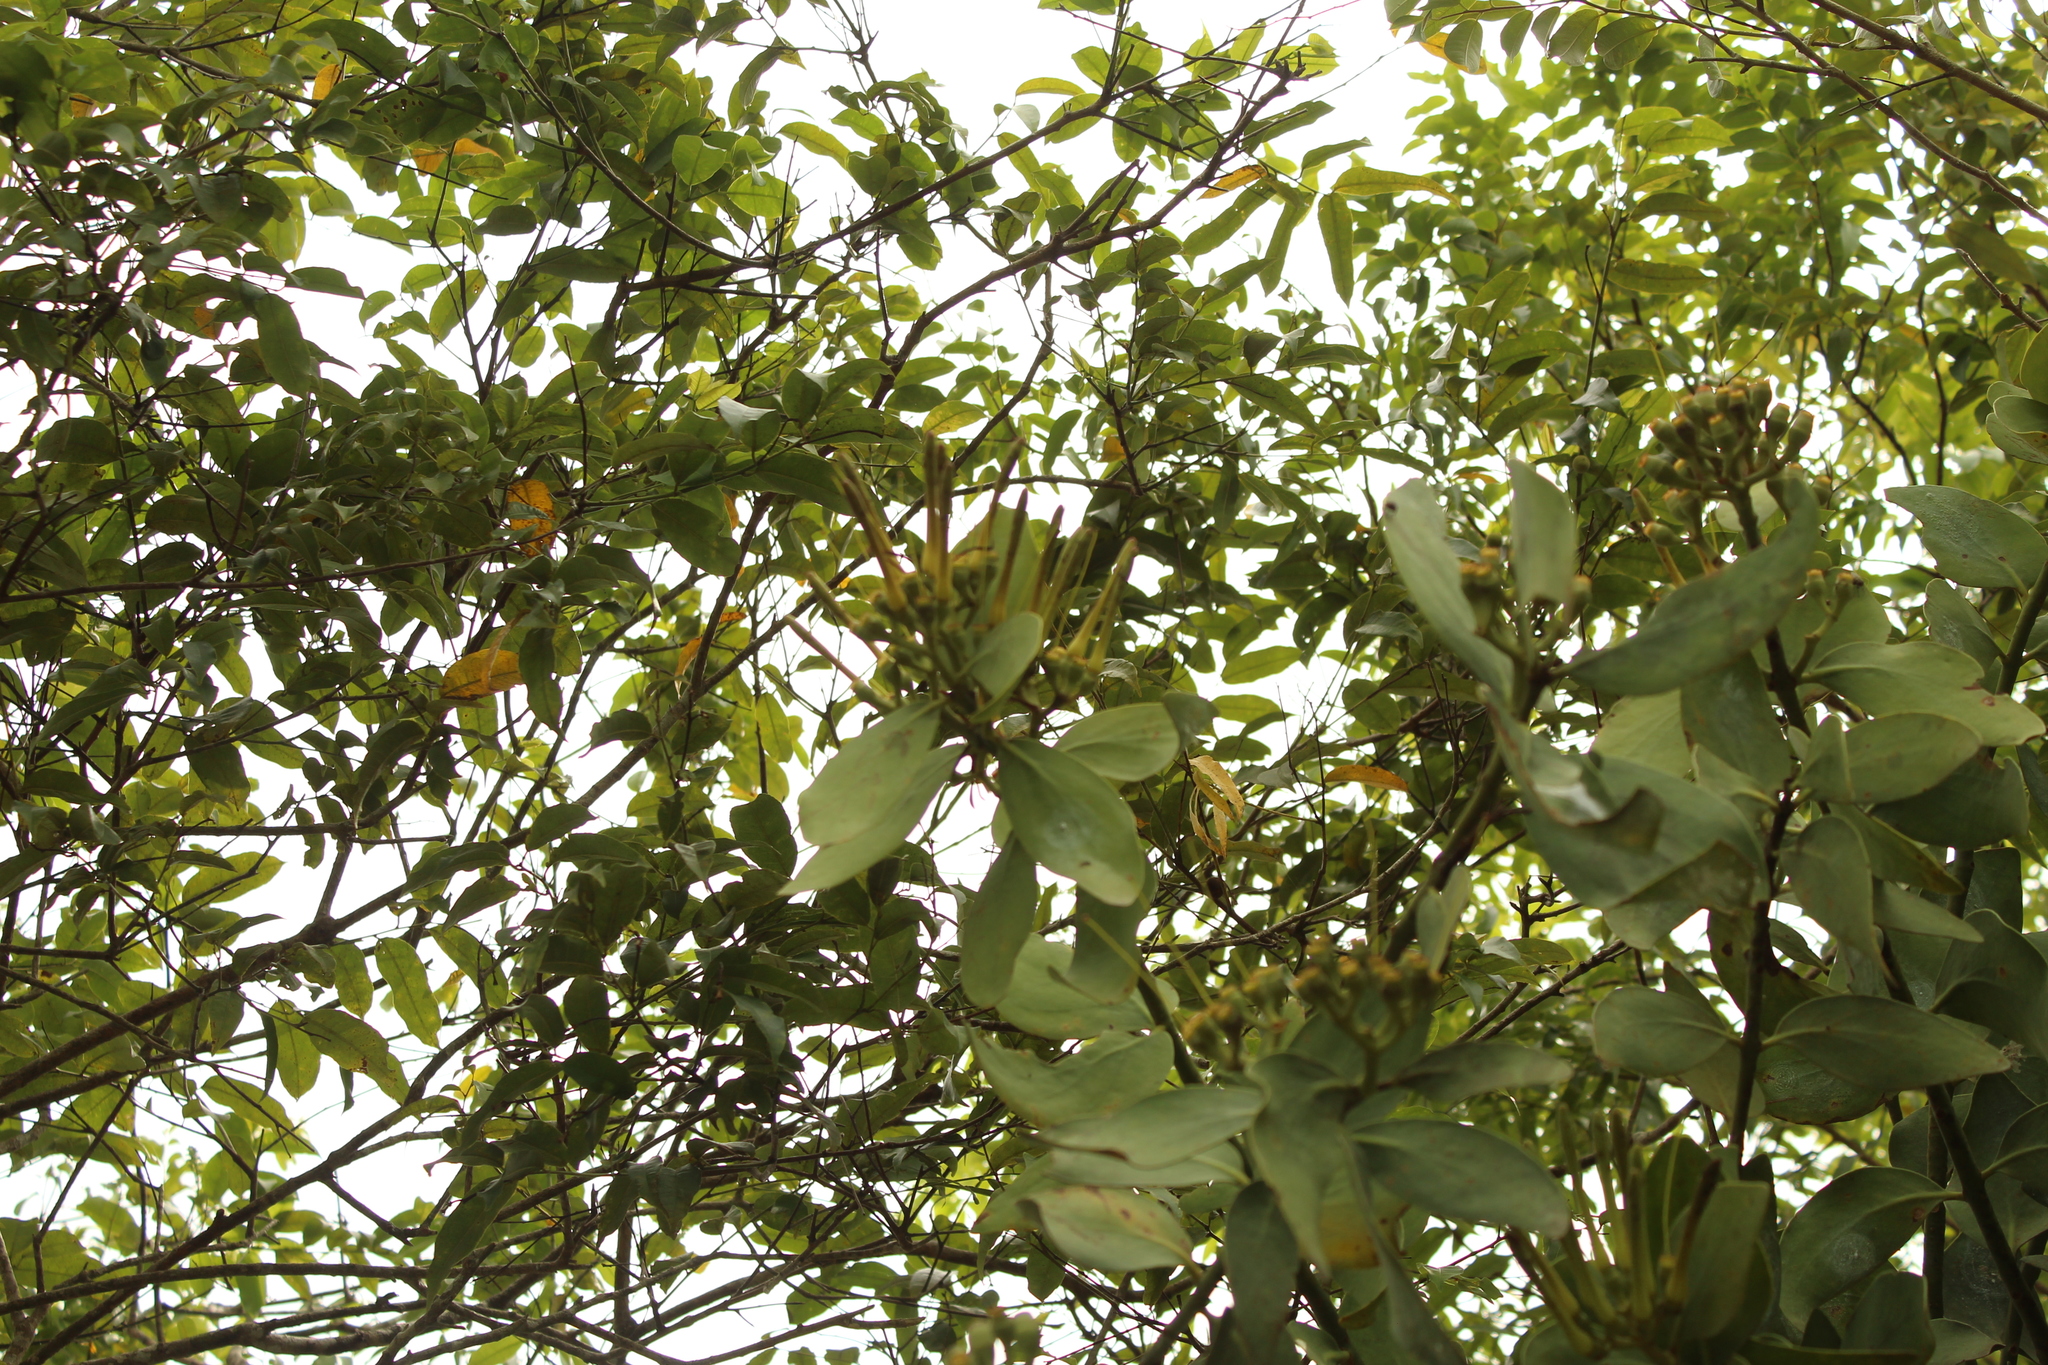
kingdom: Plantae
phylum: Tracheophyta
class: Magnoliopsida
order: Santalales
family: Loranthaceae
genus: Psittacanthus
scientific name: Psittacanthus cucullaris
